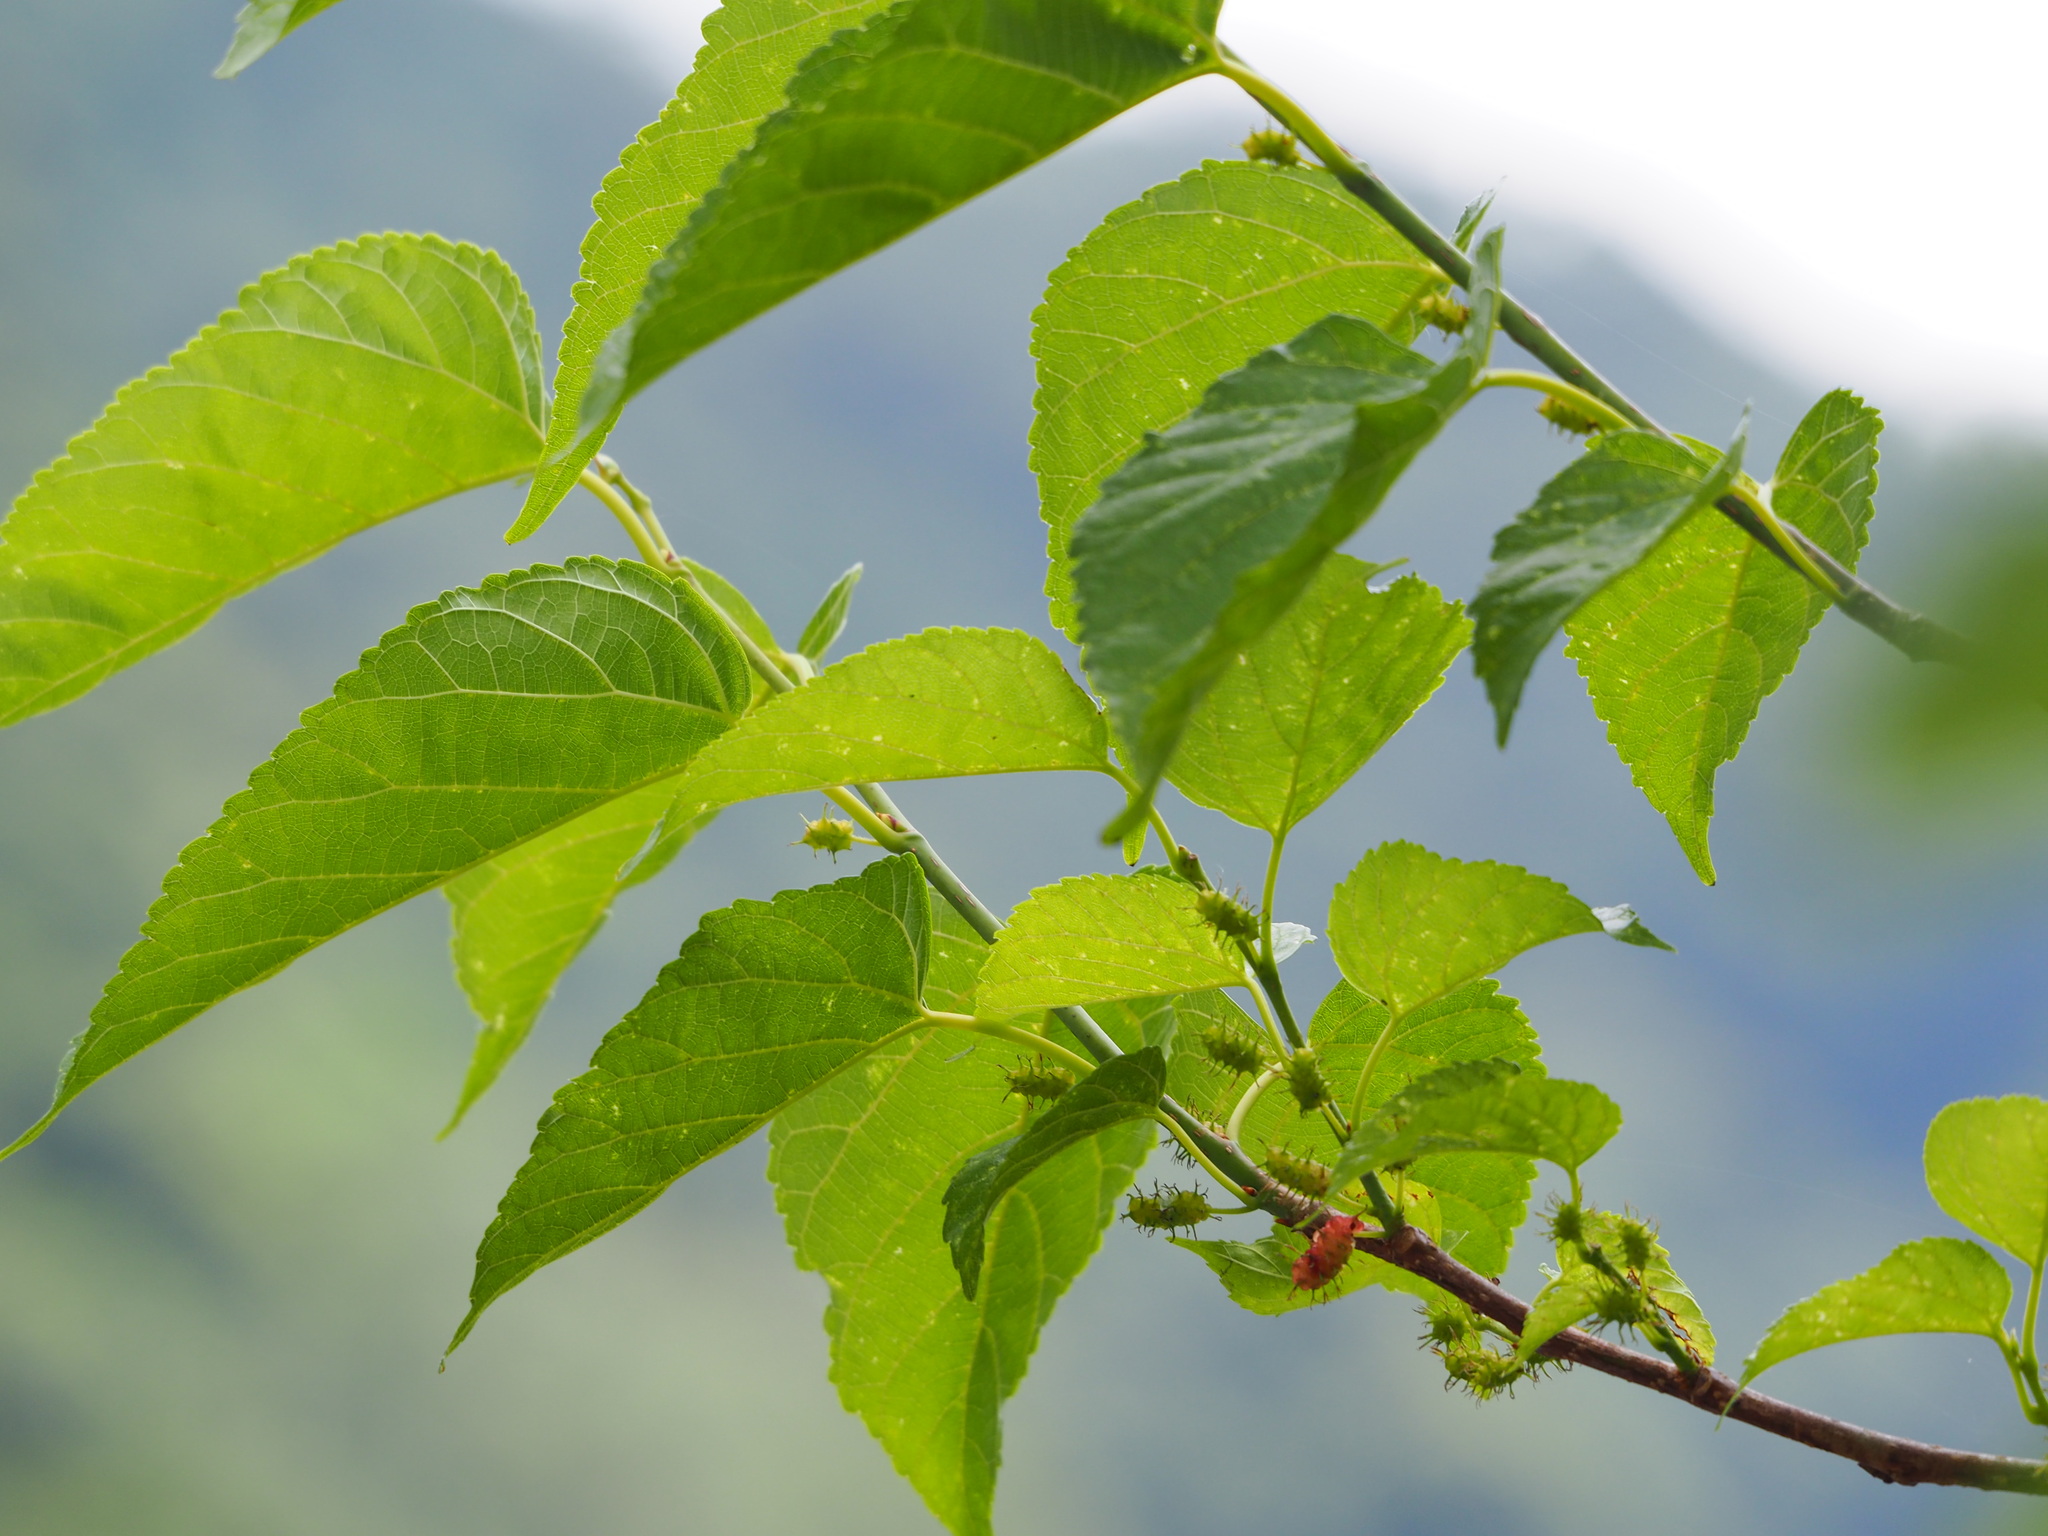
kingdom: Plantae
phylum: Tracheophyta
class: Magnoliopsida
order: Rosales
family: Moraceae
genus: Morus
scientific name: Morus indica
